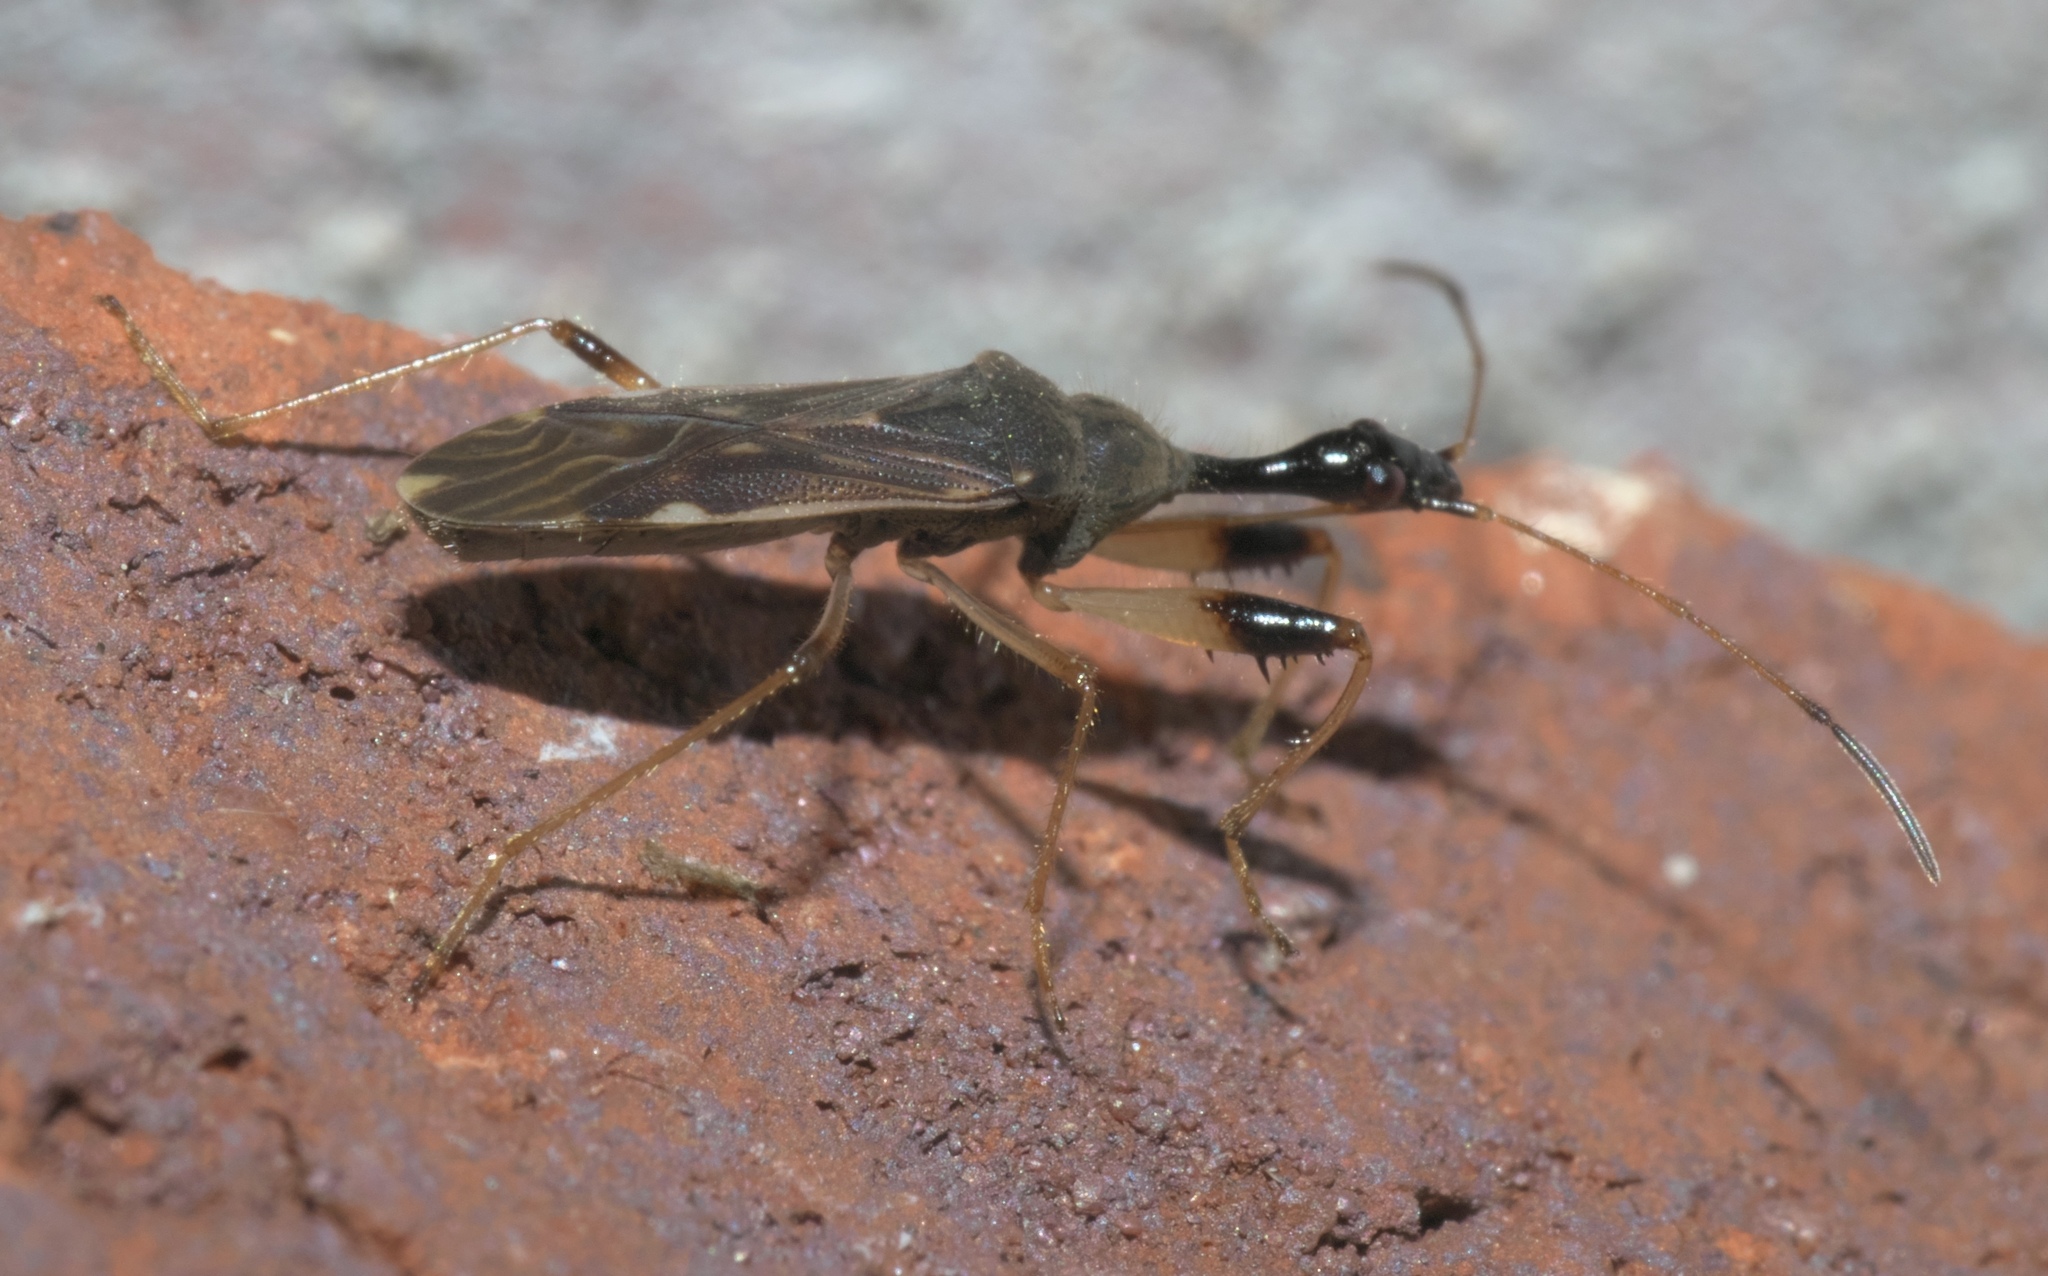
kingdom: Animalia
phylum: Arthropoda
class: Insecta
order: Hemiptera
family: Rhyparochromidae
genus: Myodocha
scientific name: Myodocha serripes
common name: Long-necked seed bug
